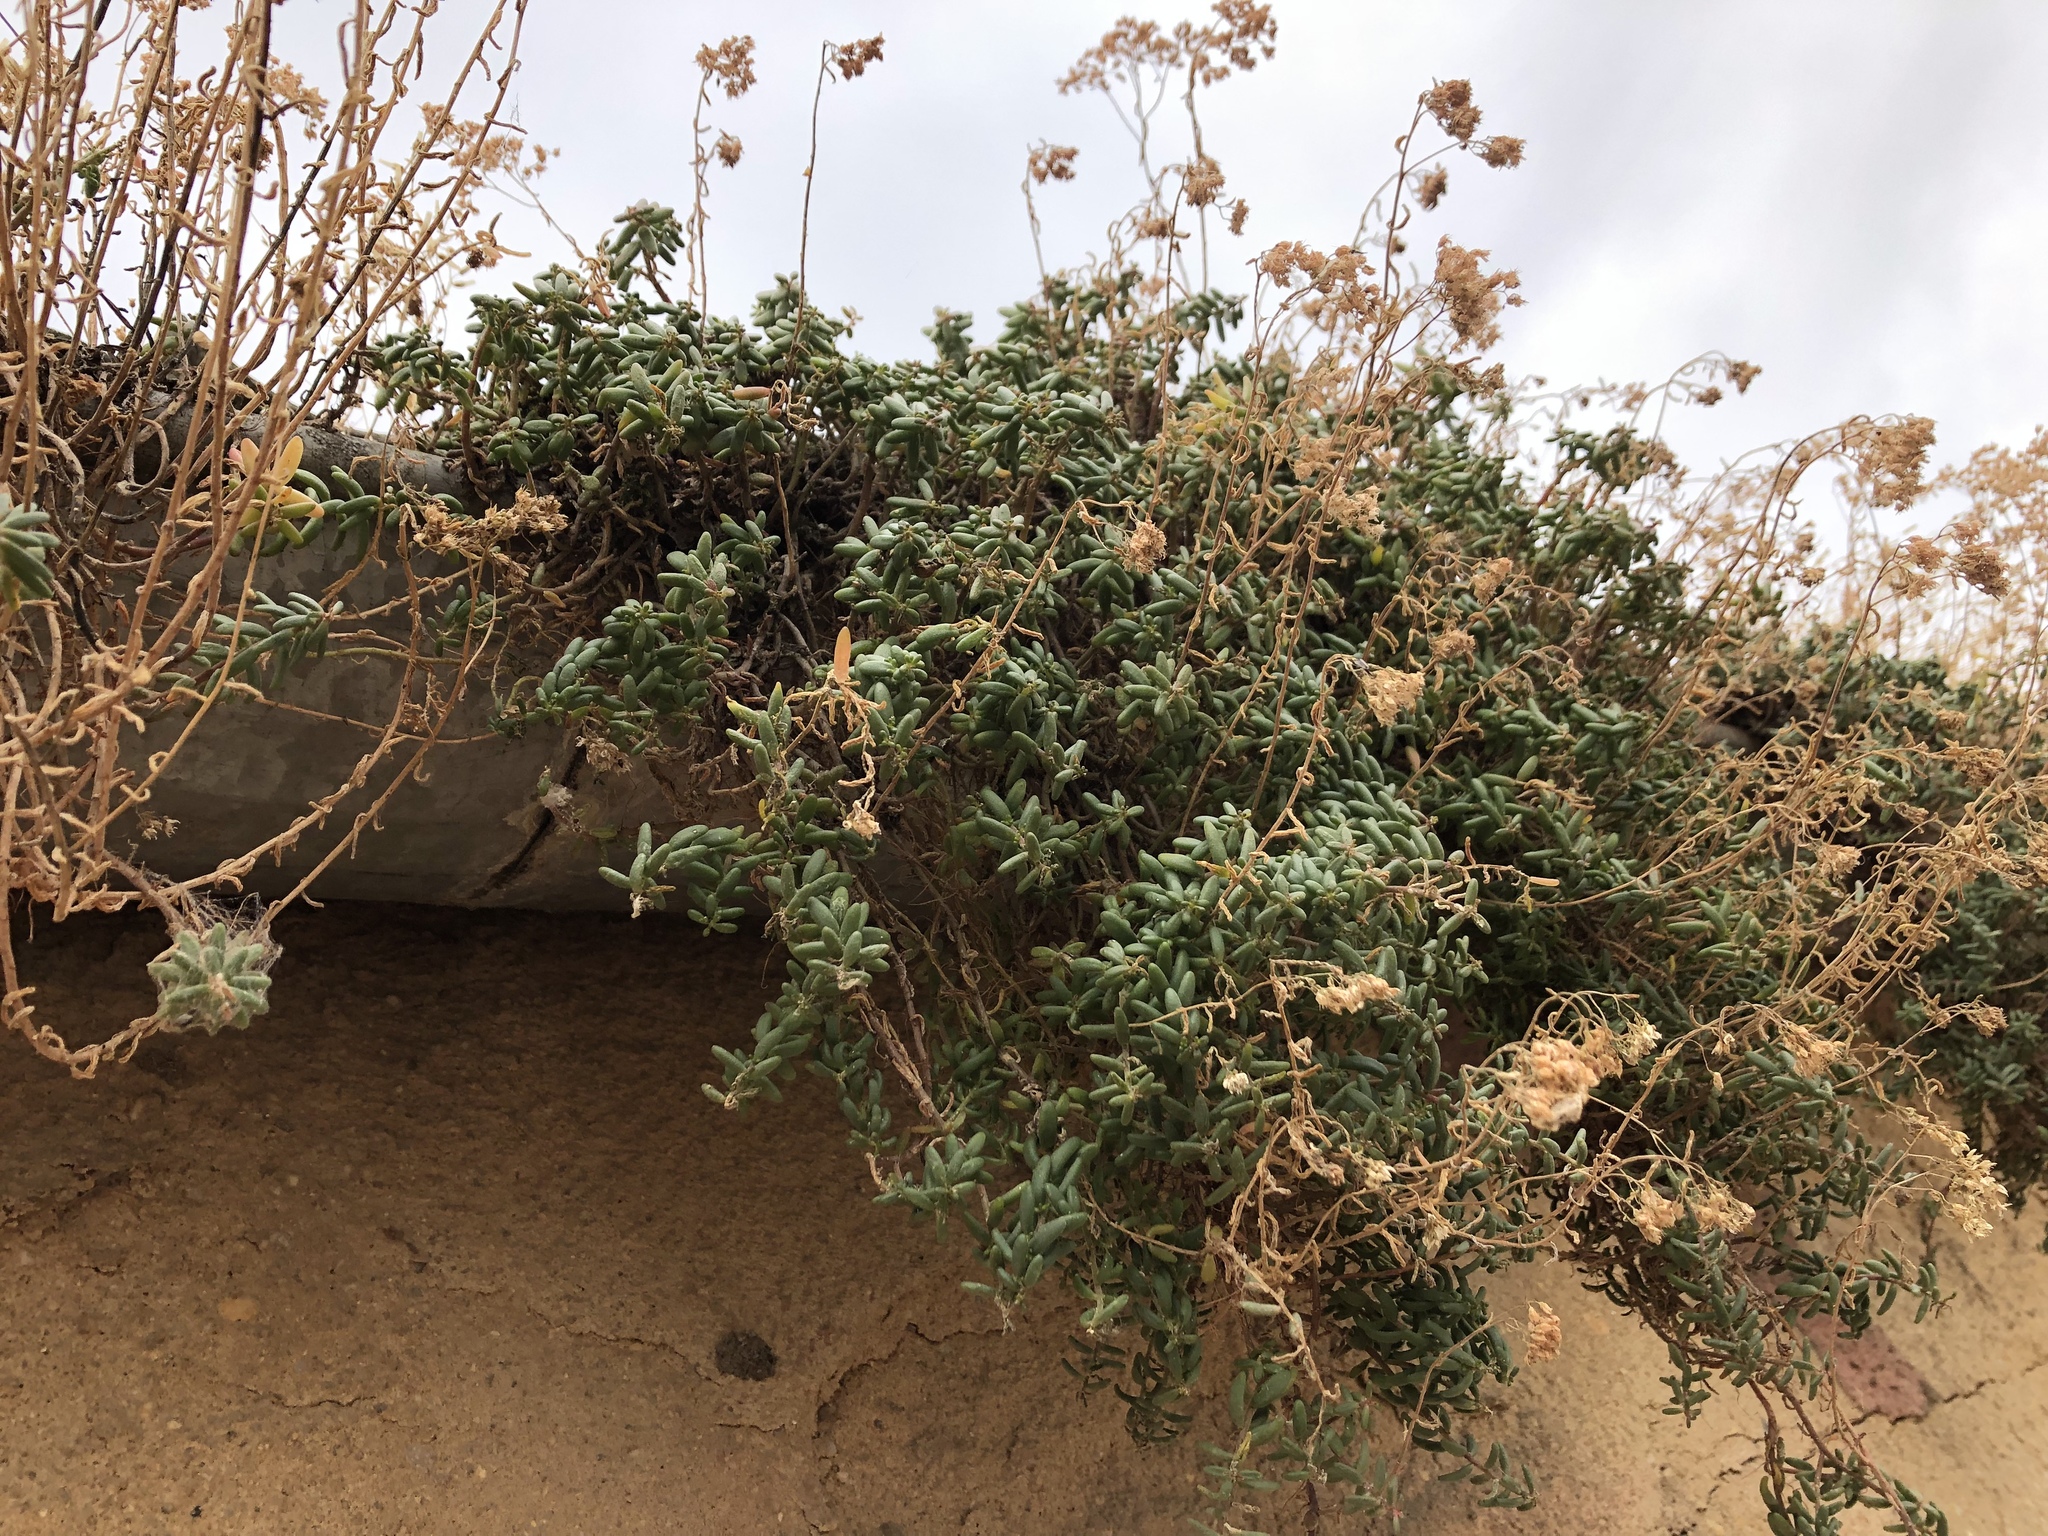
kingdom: Plantae
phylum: Tracheophyta
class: Magnoliopsida
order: Saxifragales
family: Crassulaceae
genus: Sedum
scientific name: Sedum album
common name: White stonecrop
